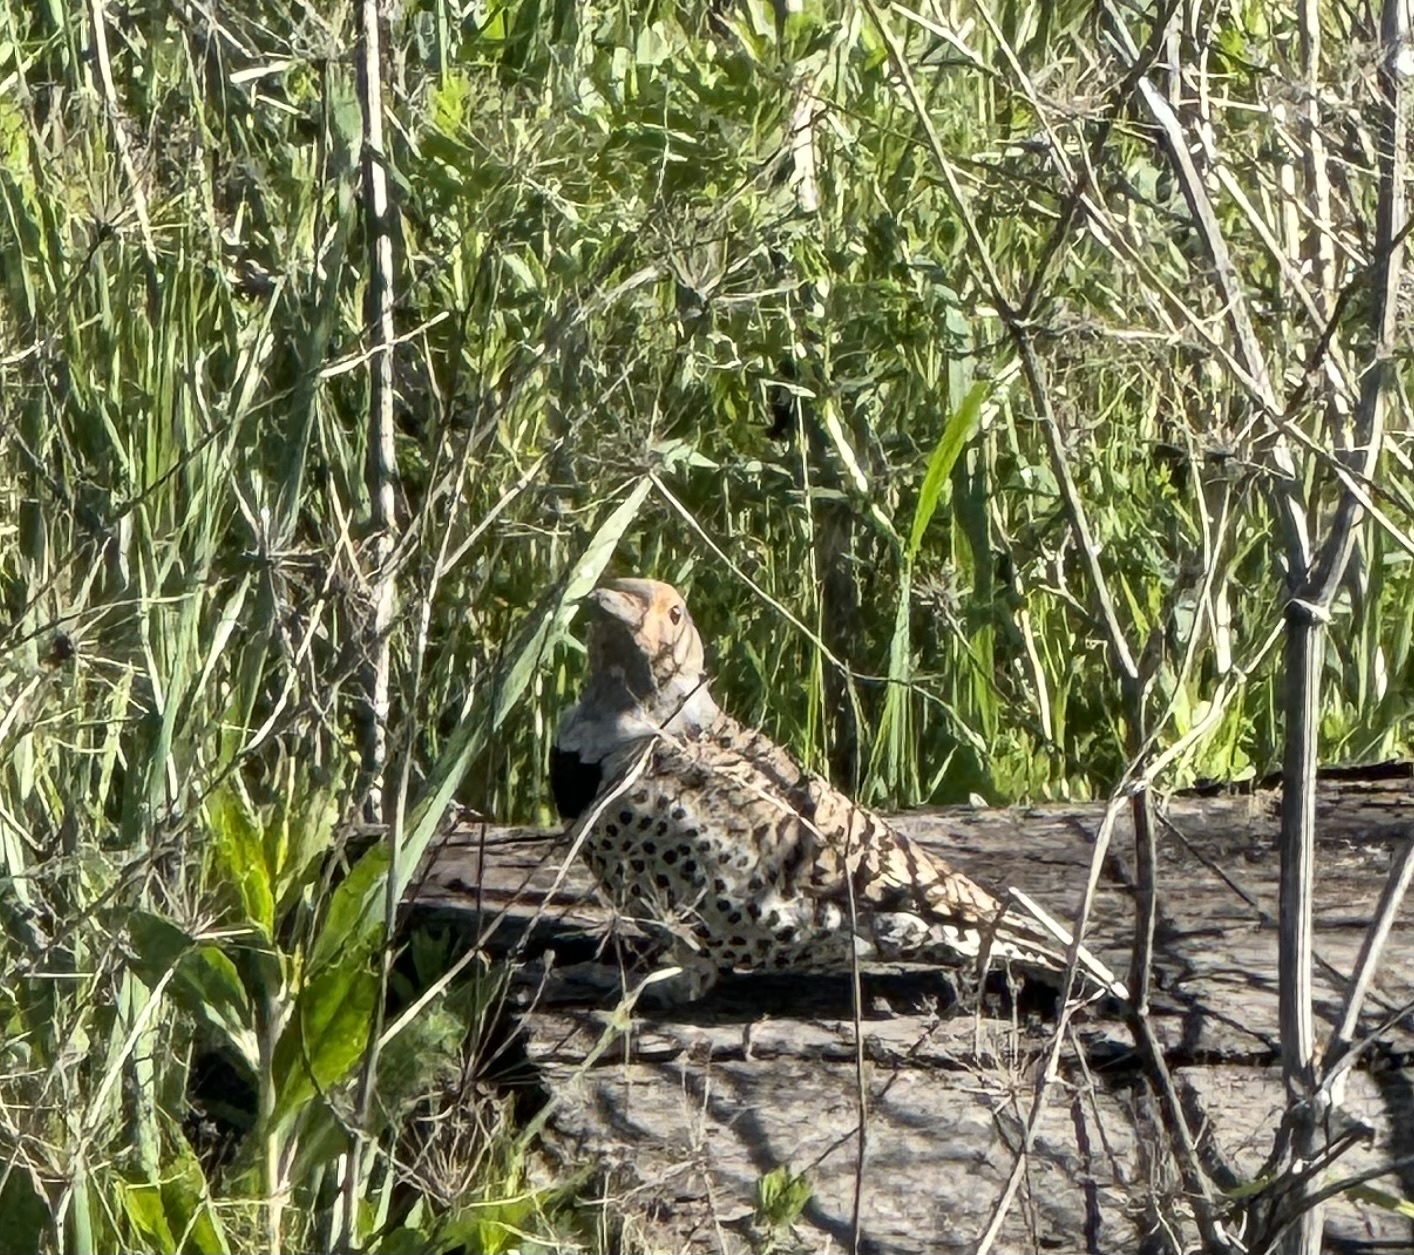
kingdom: Animalia
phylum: Chordata
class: Aves
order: Piciformes
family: Picidae
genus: Colaptes
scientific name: Colaptes auratus
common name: Northern flicker
